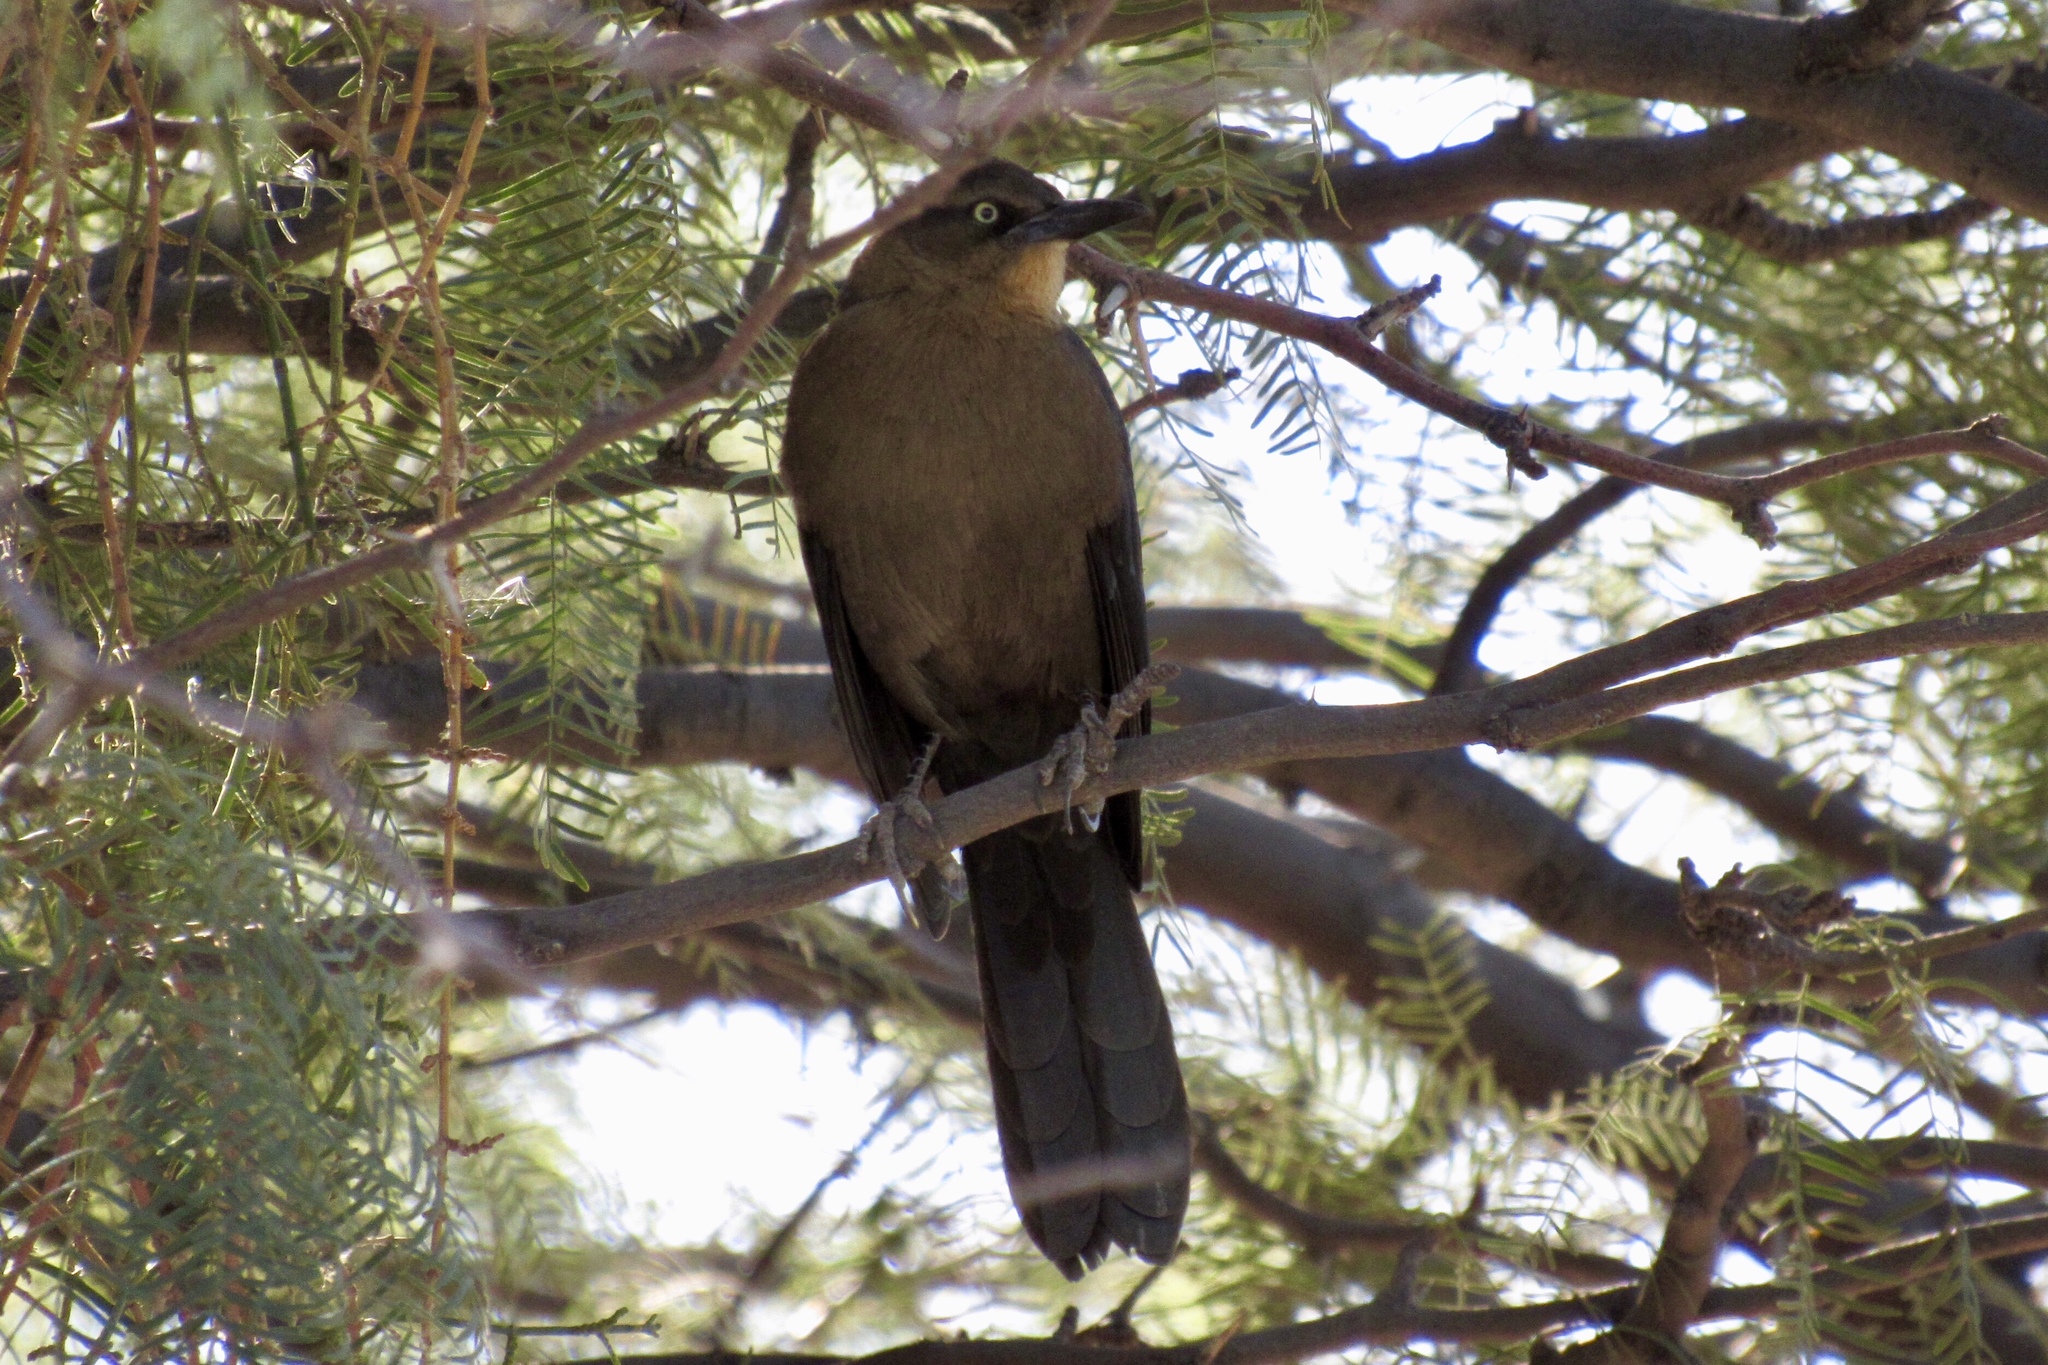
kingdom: Animalia
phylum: Chordata
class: Aves
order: Passeriformes
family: Icteridae
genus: Quiscalus
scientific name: Quiscalus mexicanus
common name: Great-tailed grackle
